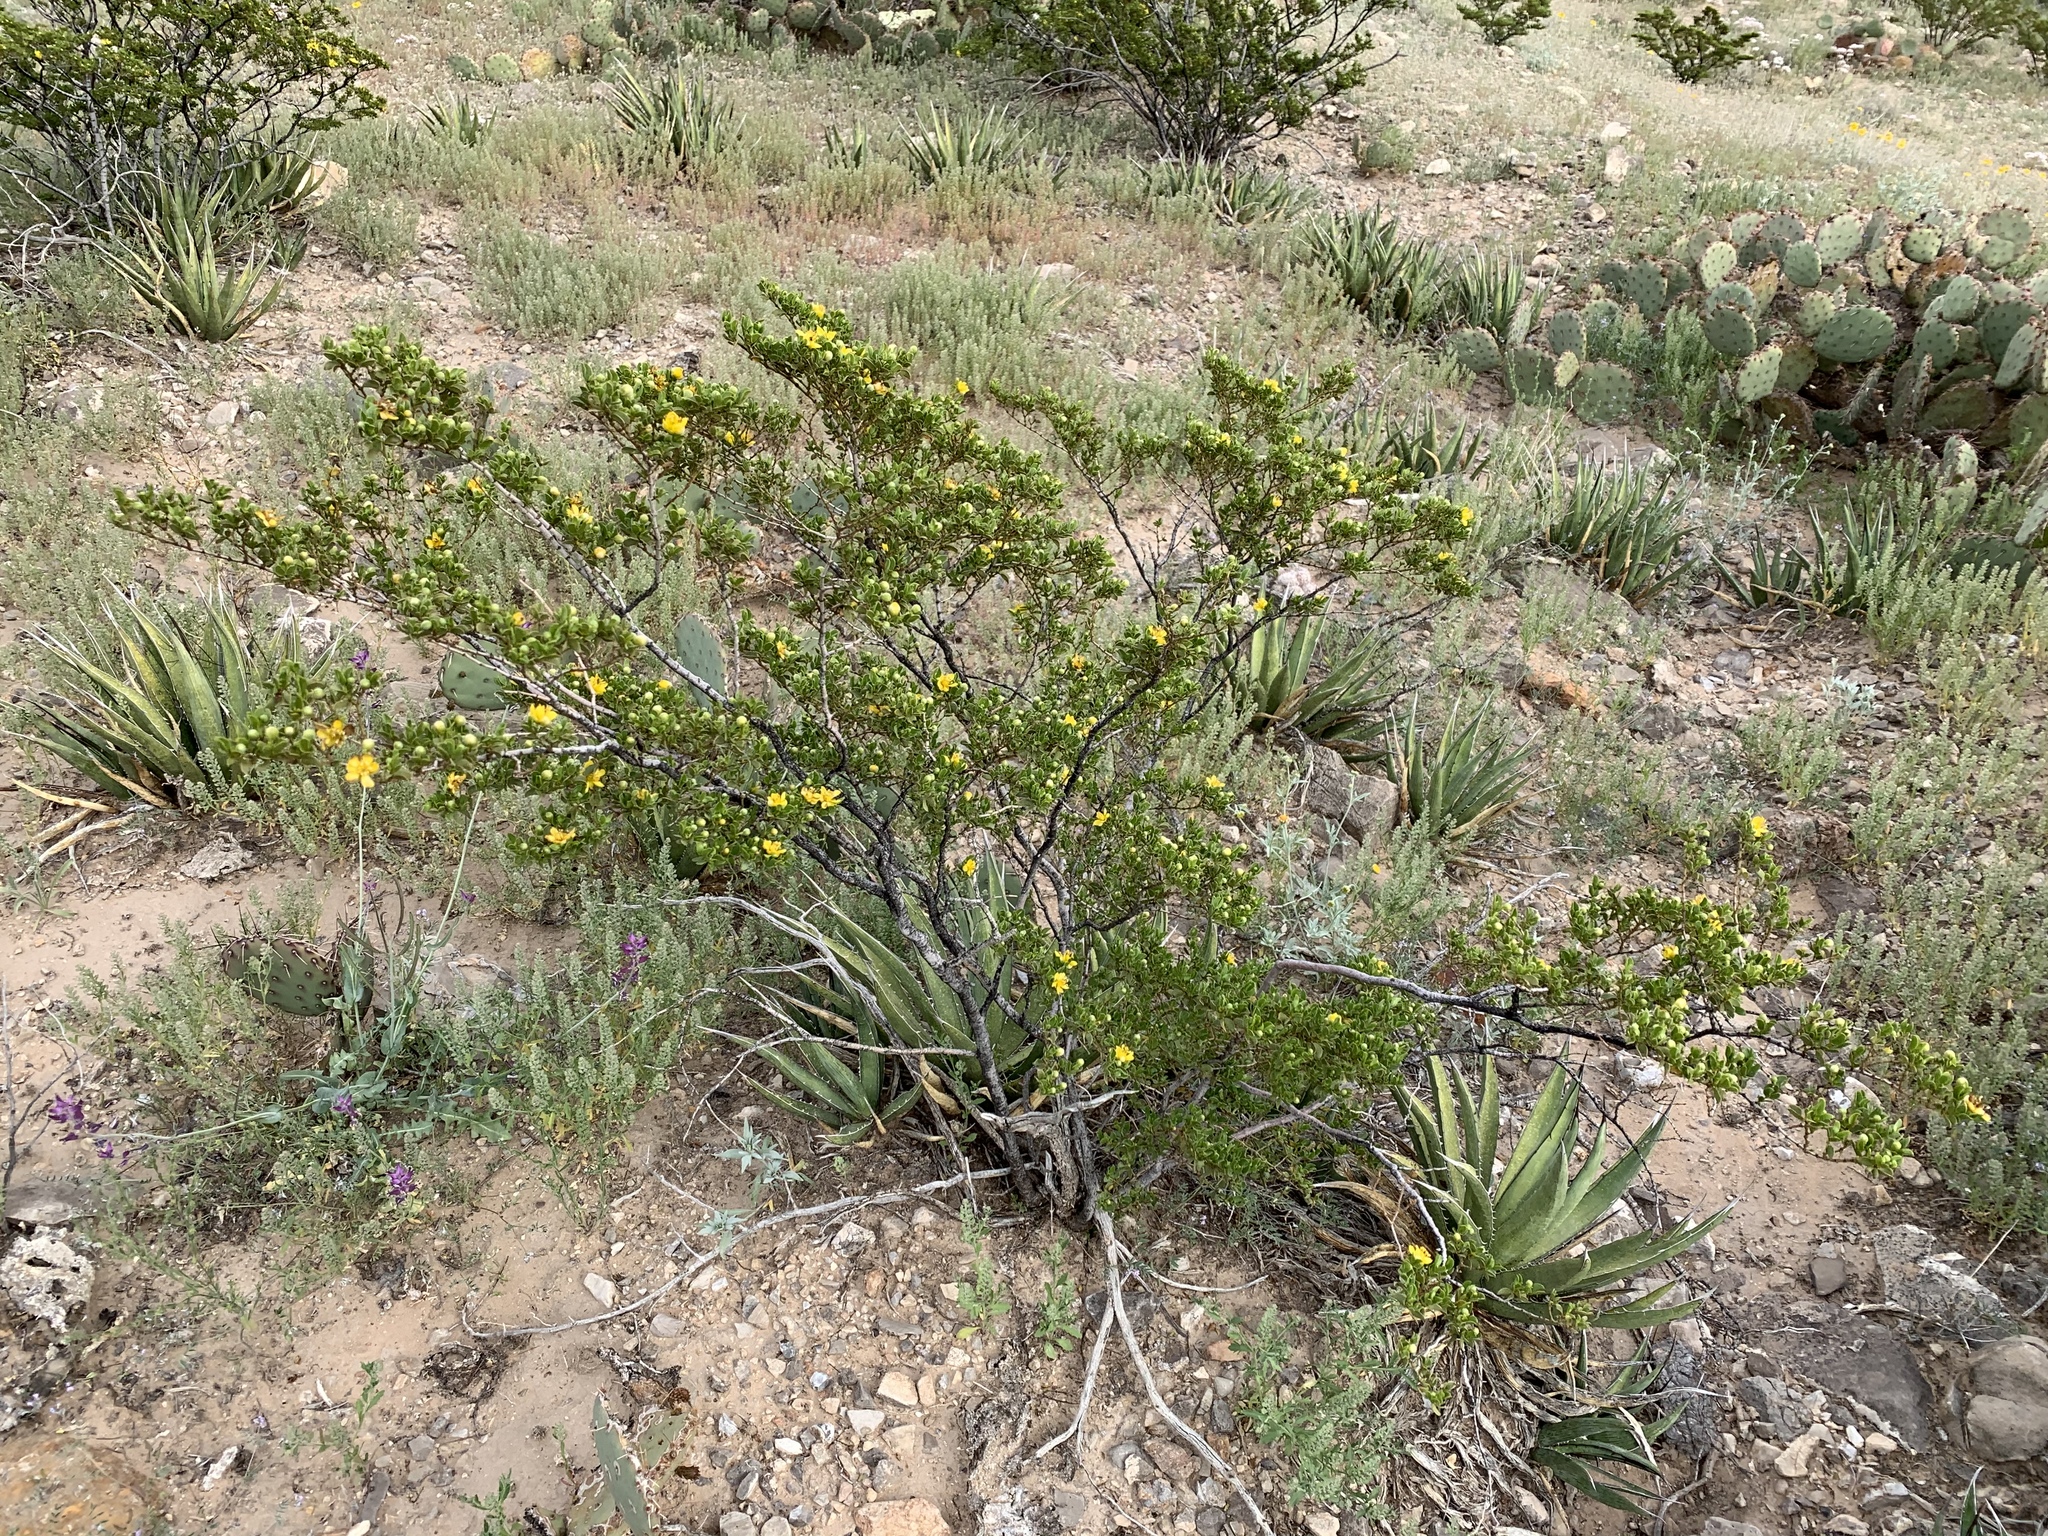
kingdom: Plantae
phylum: Tracheophyta
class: Magnoliopsida
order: Zygophyllales
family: Zygophyllaceae
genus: Larrea
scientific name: Larrea tridentata
